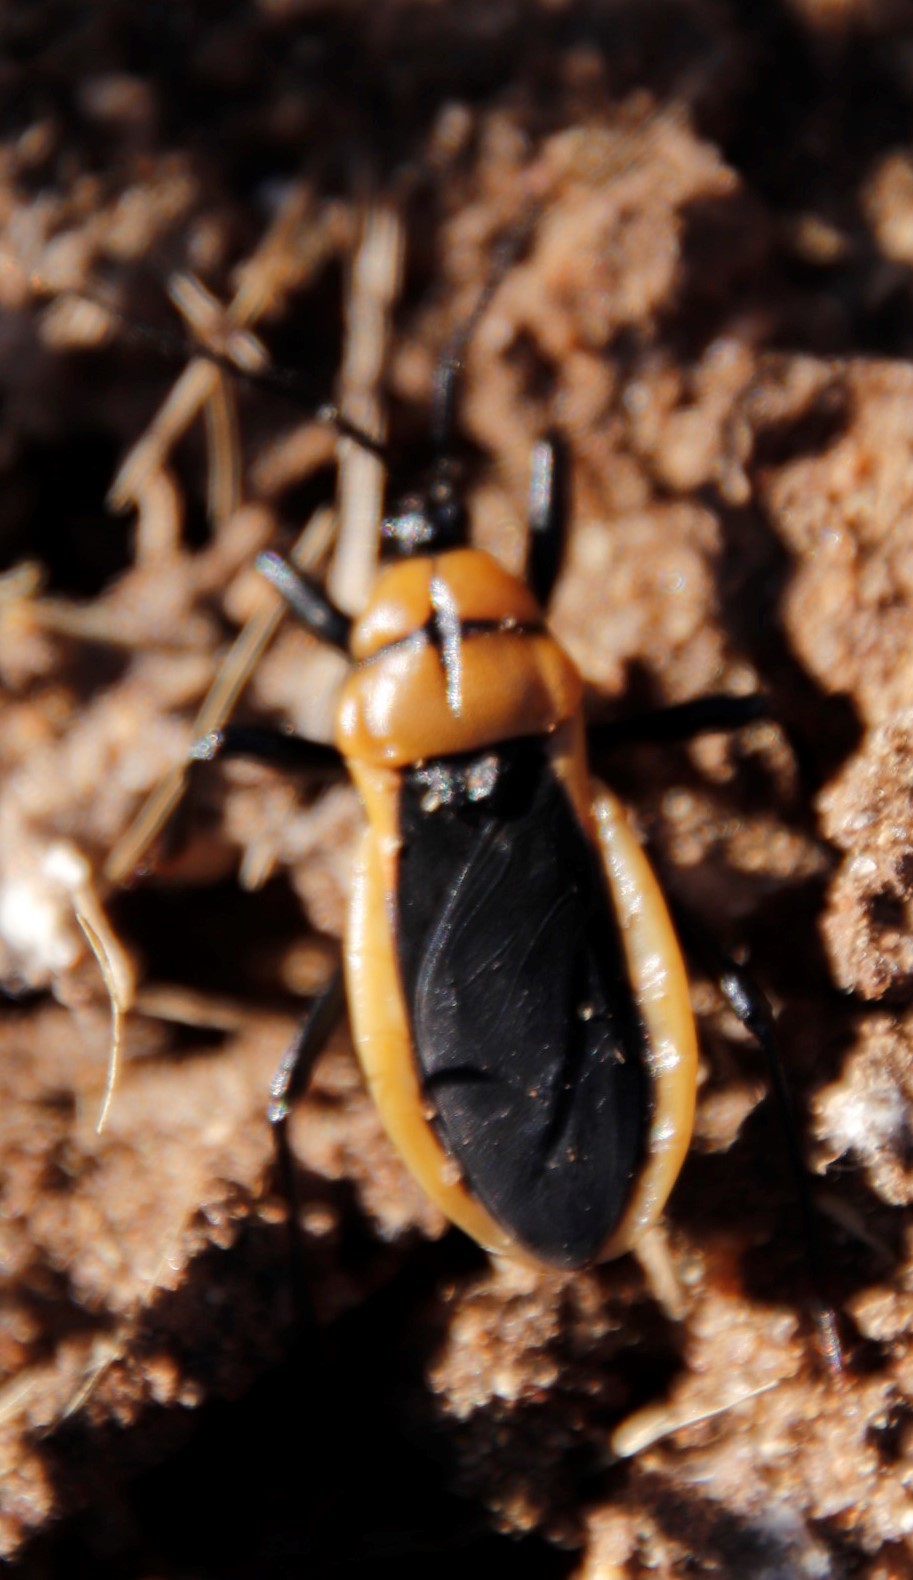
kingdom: Animalia
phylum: Arthropoda
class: Insecta
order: Hemiptera
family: Reduviidae
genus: Ectrichodia
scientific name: Ectrichodia crux
